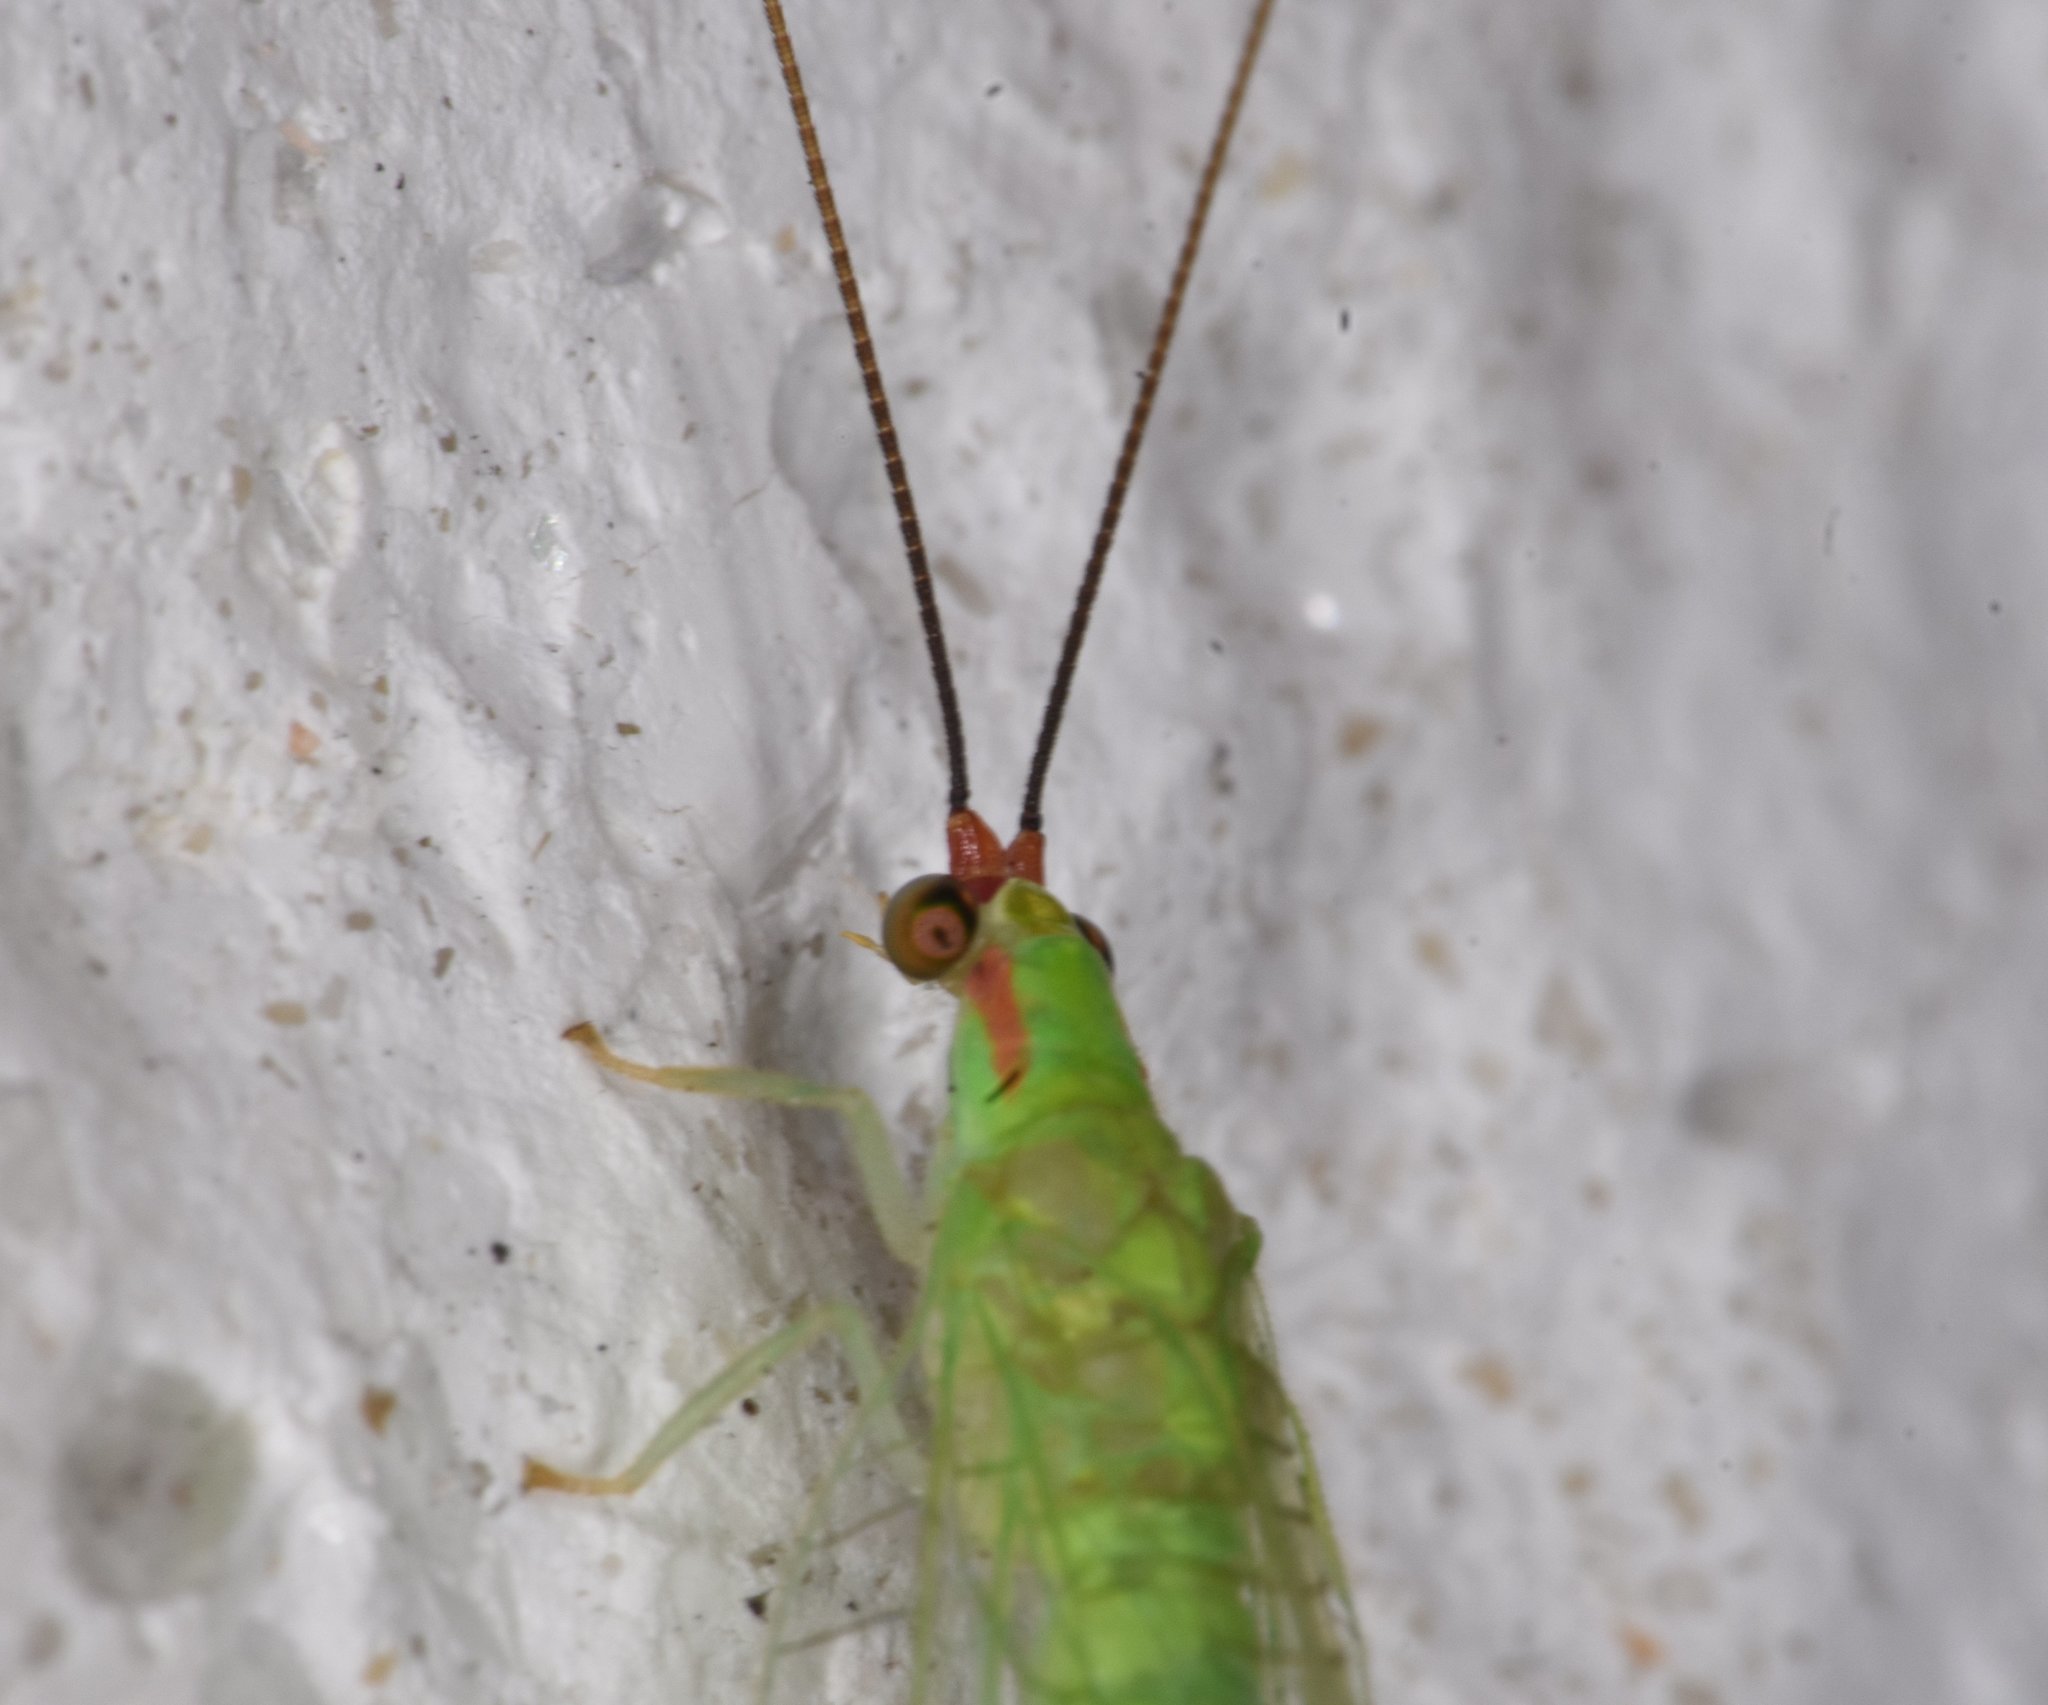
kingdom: Animalia
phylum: Arthropoda
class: Insecta
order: Neuroptera
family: Chrysopidae
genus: Ceraeochrysa
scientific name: Ceraeochrysa smithi
